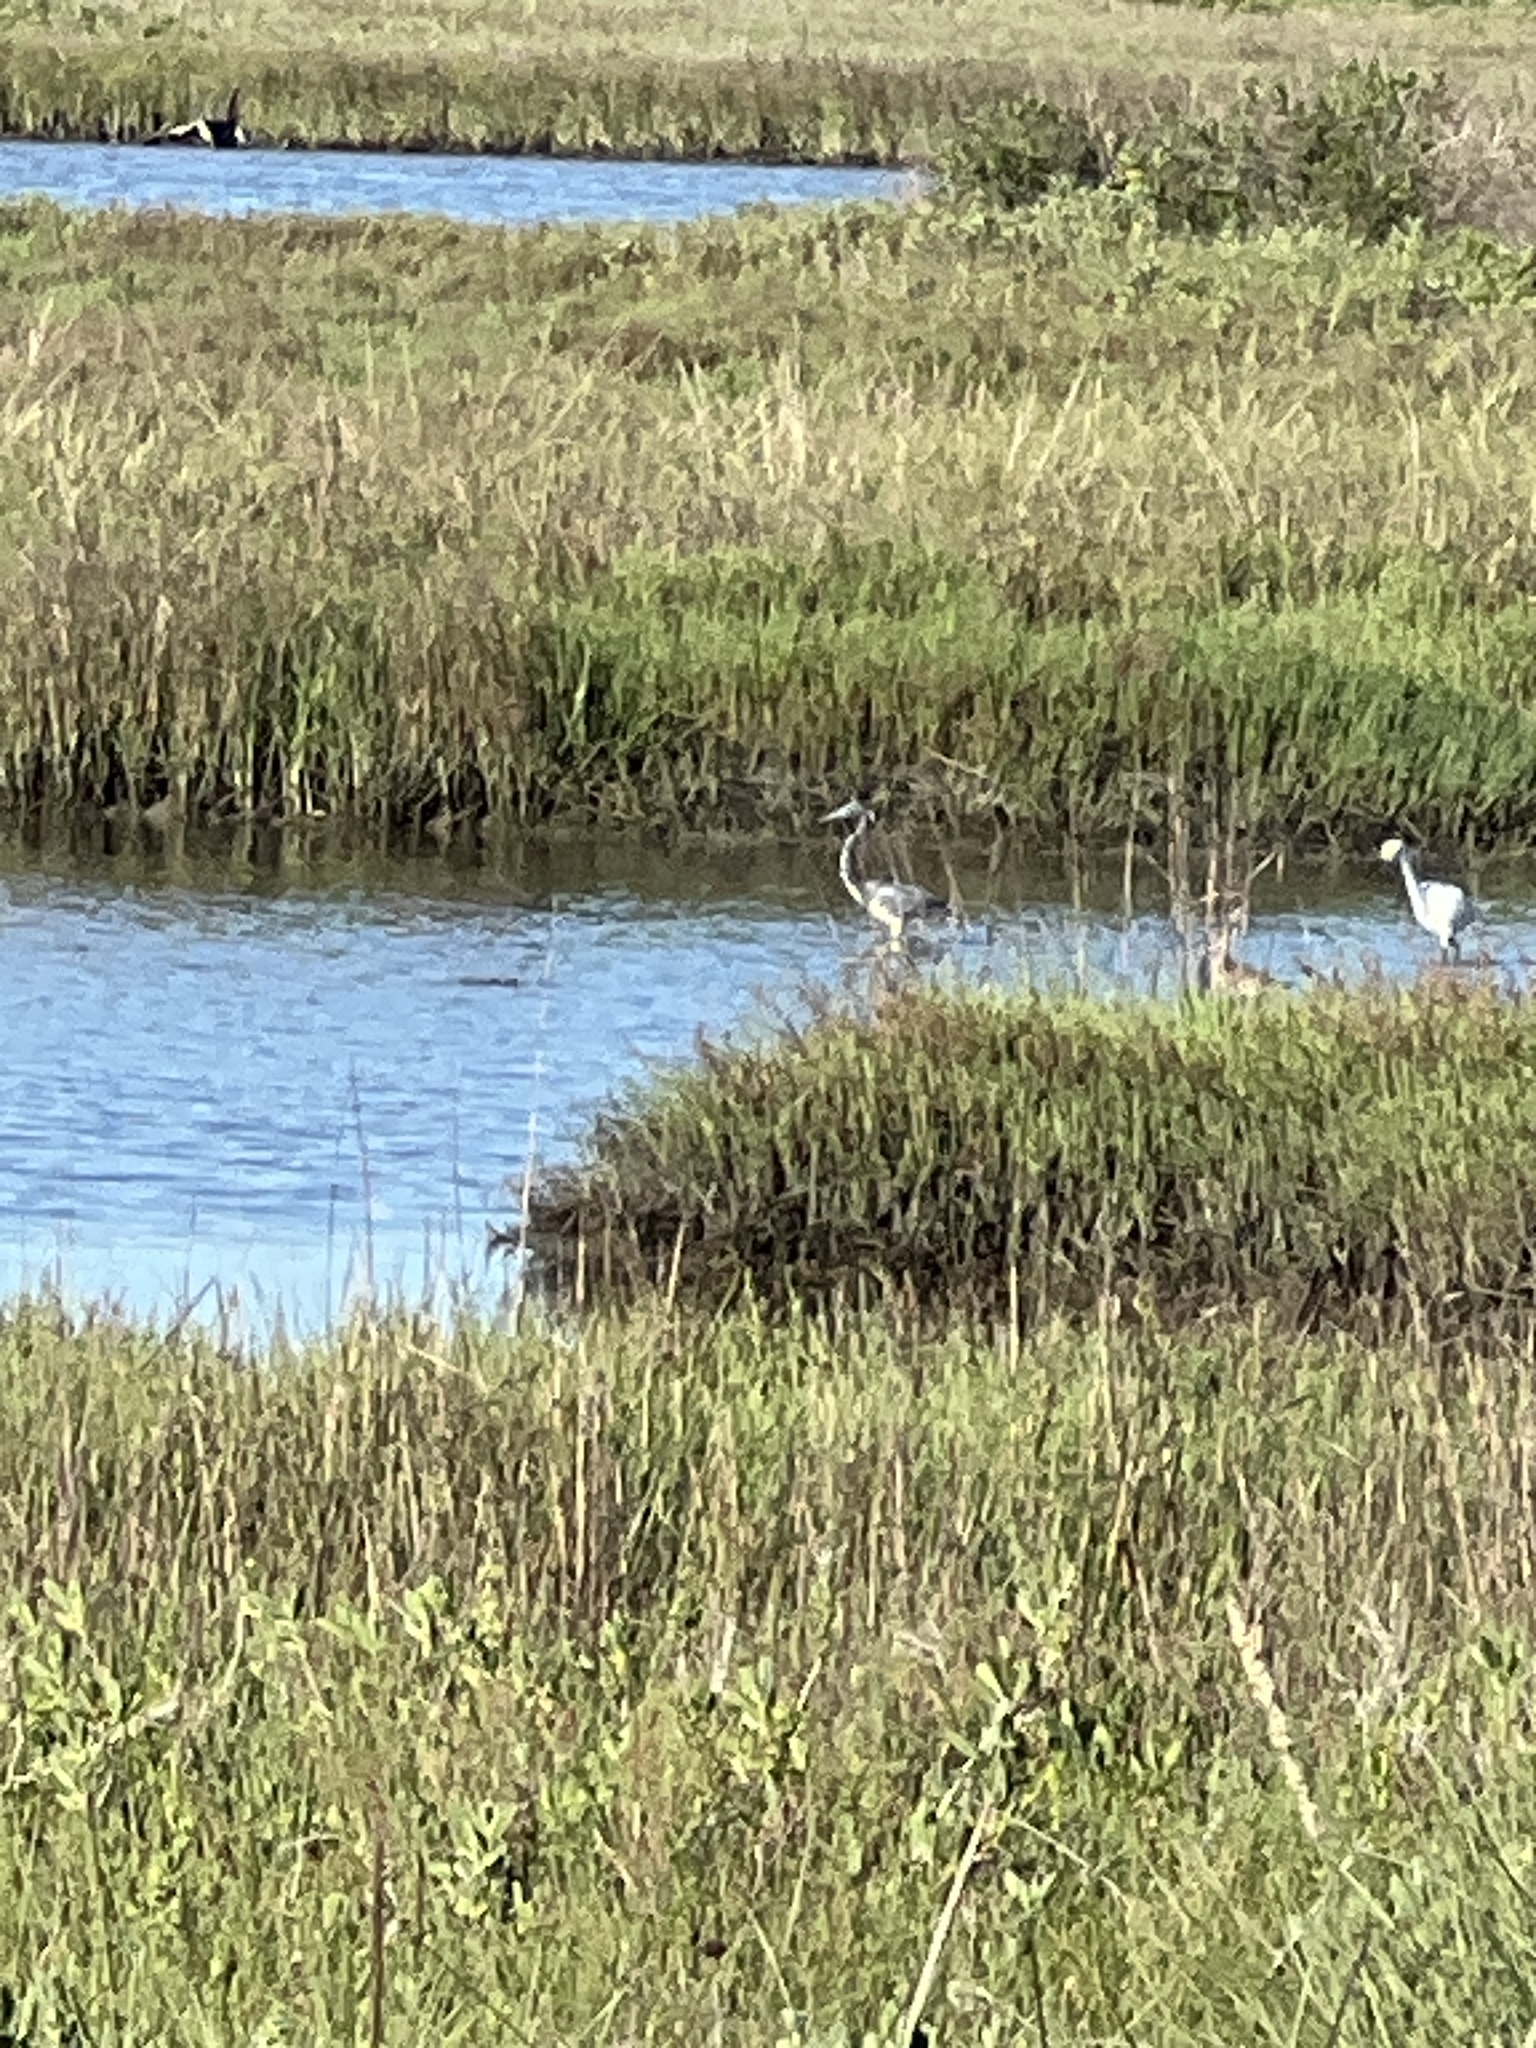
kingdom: Animalia
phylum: Chordata
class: Aves
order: Pelecaniformes
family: Ardeidae
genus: Egretta
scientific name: Egretta tricolor
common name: Tricolored heron
